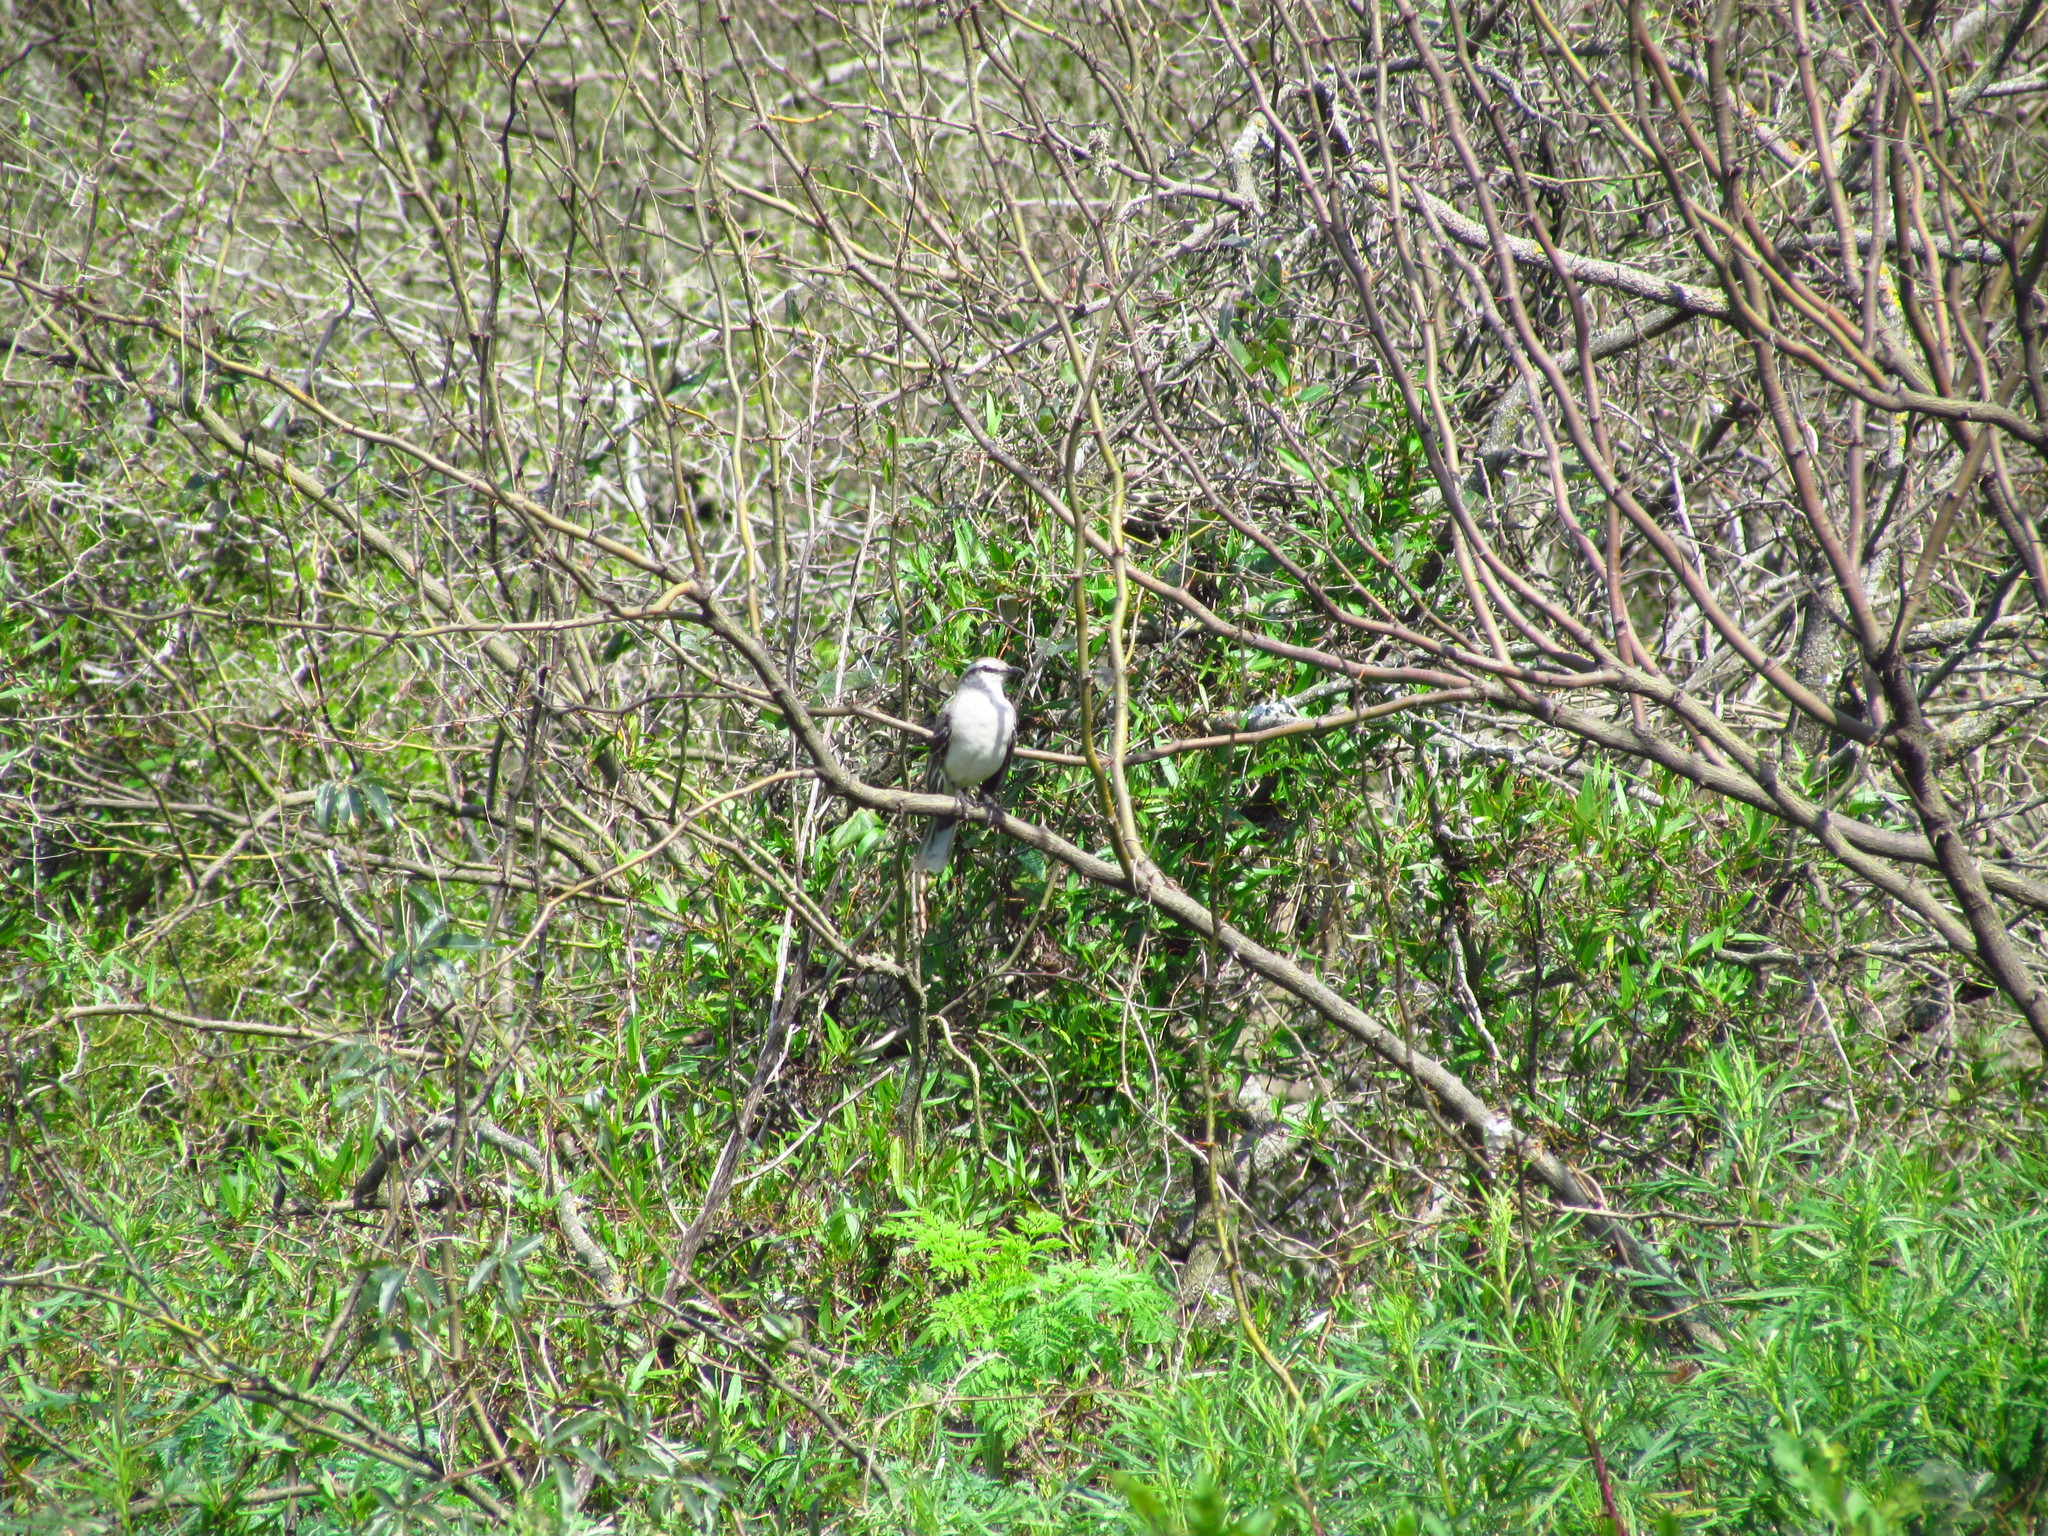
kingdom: Animalia
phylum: Chordata
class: Aves
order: Passeriformes
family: Mimidae
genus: Mimus
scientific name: Mimus saturninus
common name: Chalk-browed mockingbird
